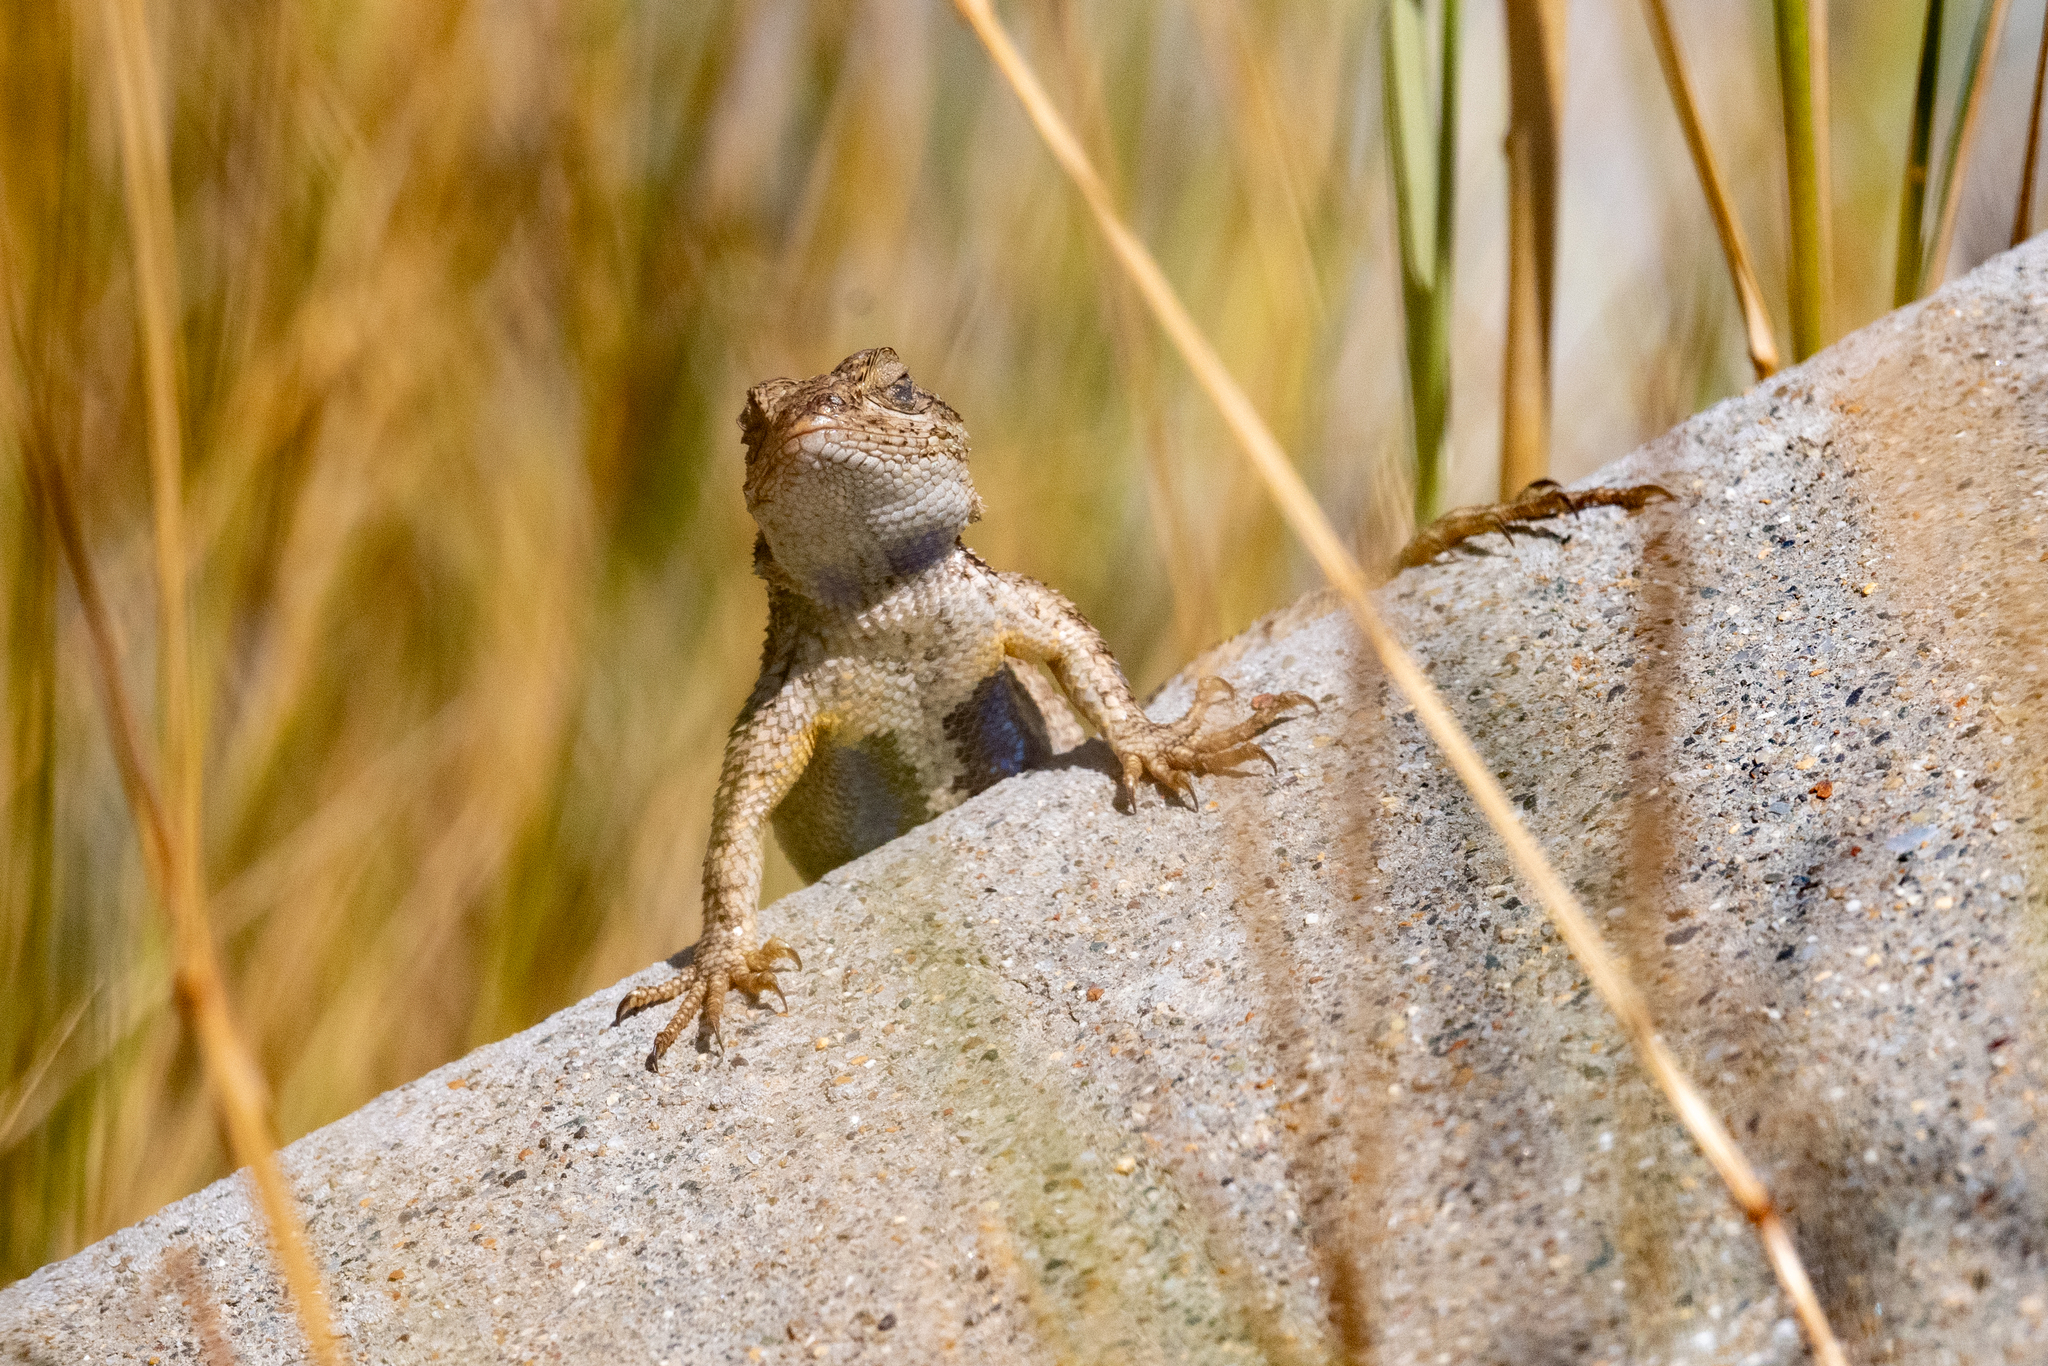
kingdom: Animalia
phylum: Chordata
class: Squamata
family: Phrynosomatidae
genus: Sceloporus
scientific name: Sceloporus occidentalis
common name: Western fence lizard
